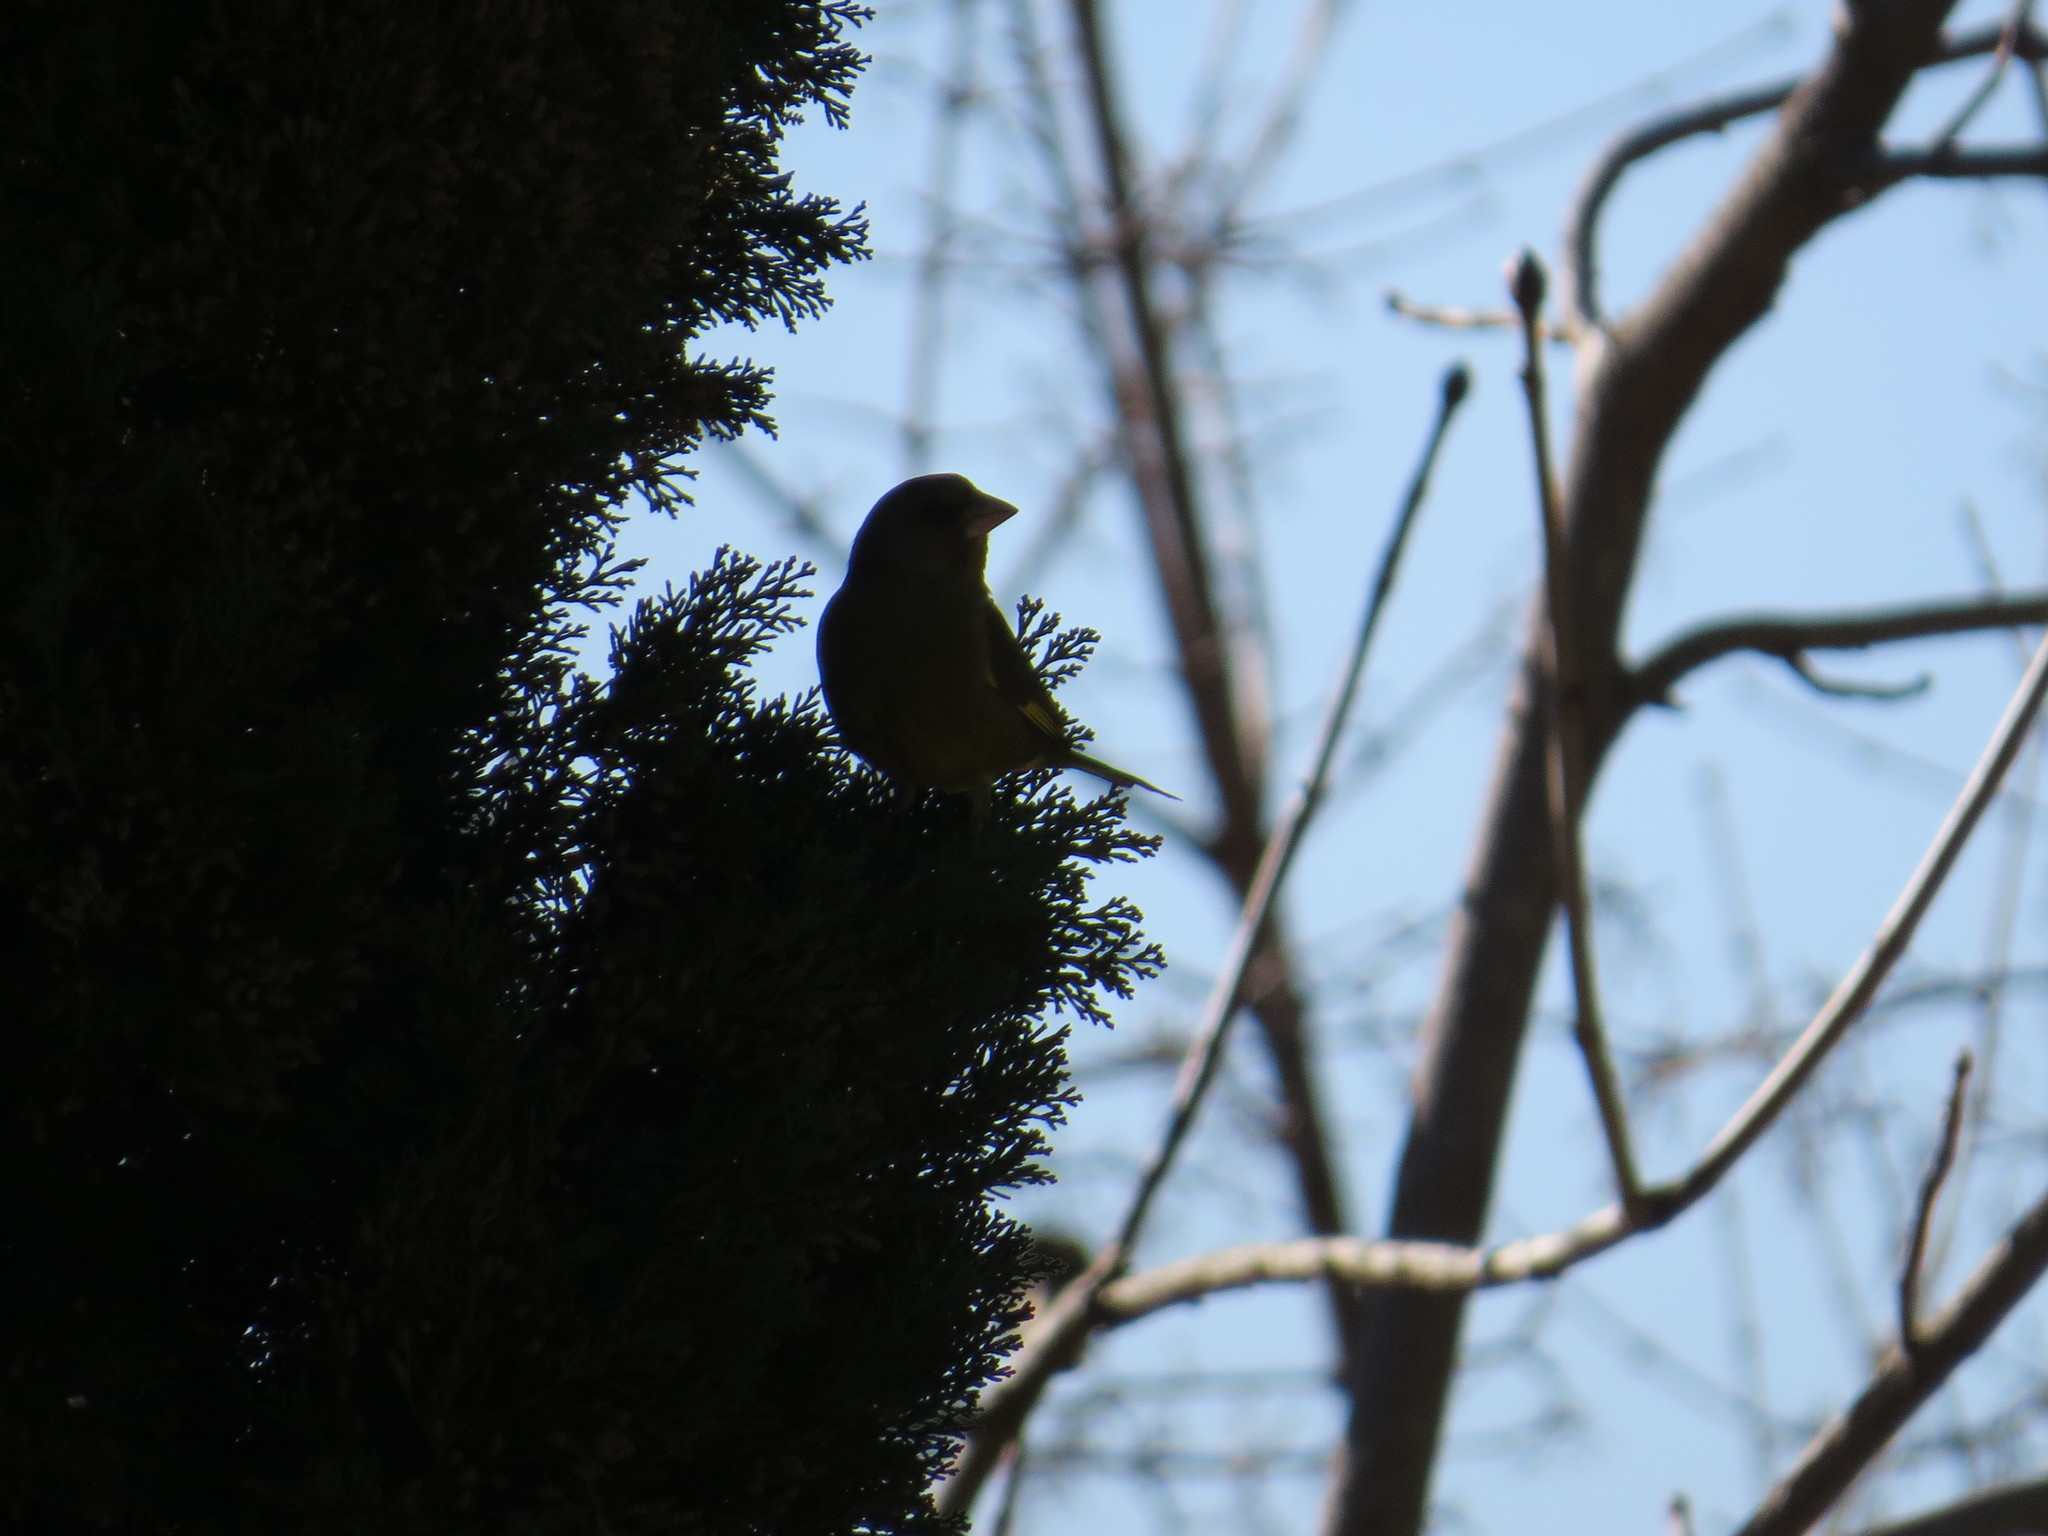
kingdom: Plantae
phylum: Tracheophyta
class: Liliopsida
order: Poales
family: Poaceae
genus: Chloris
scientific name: Chloris chloris
